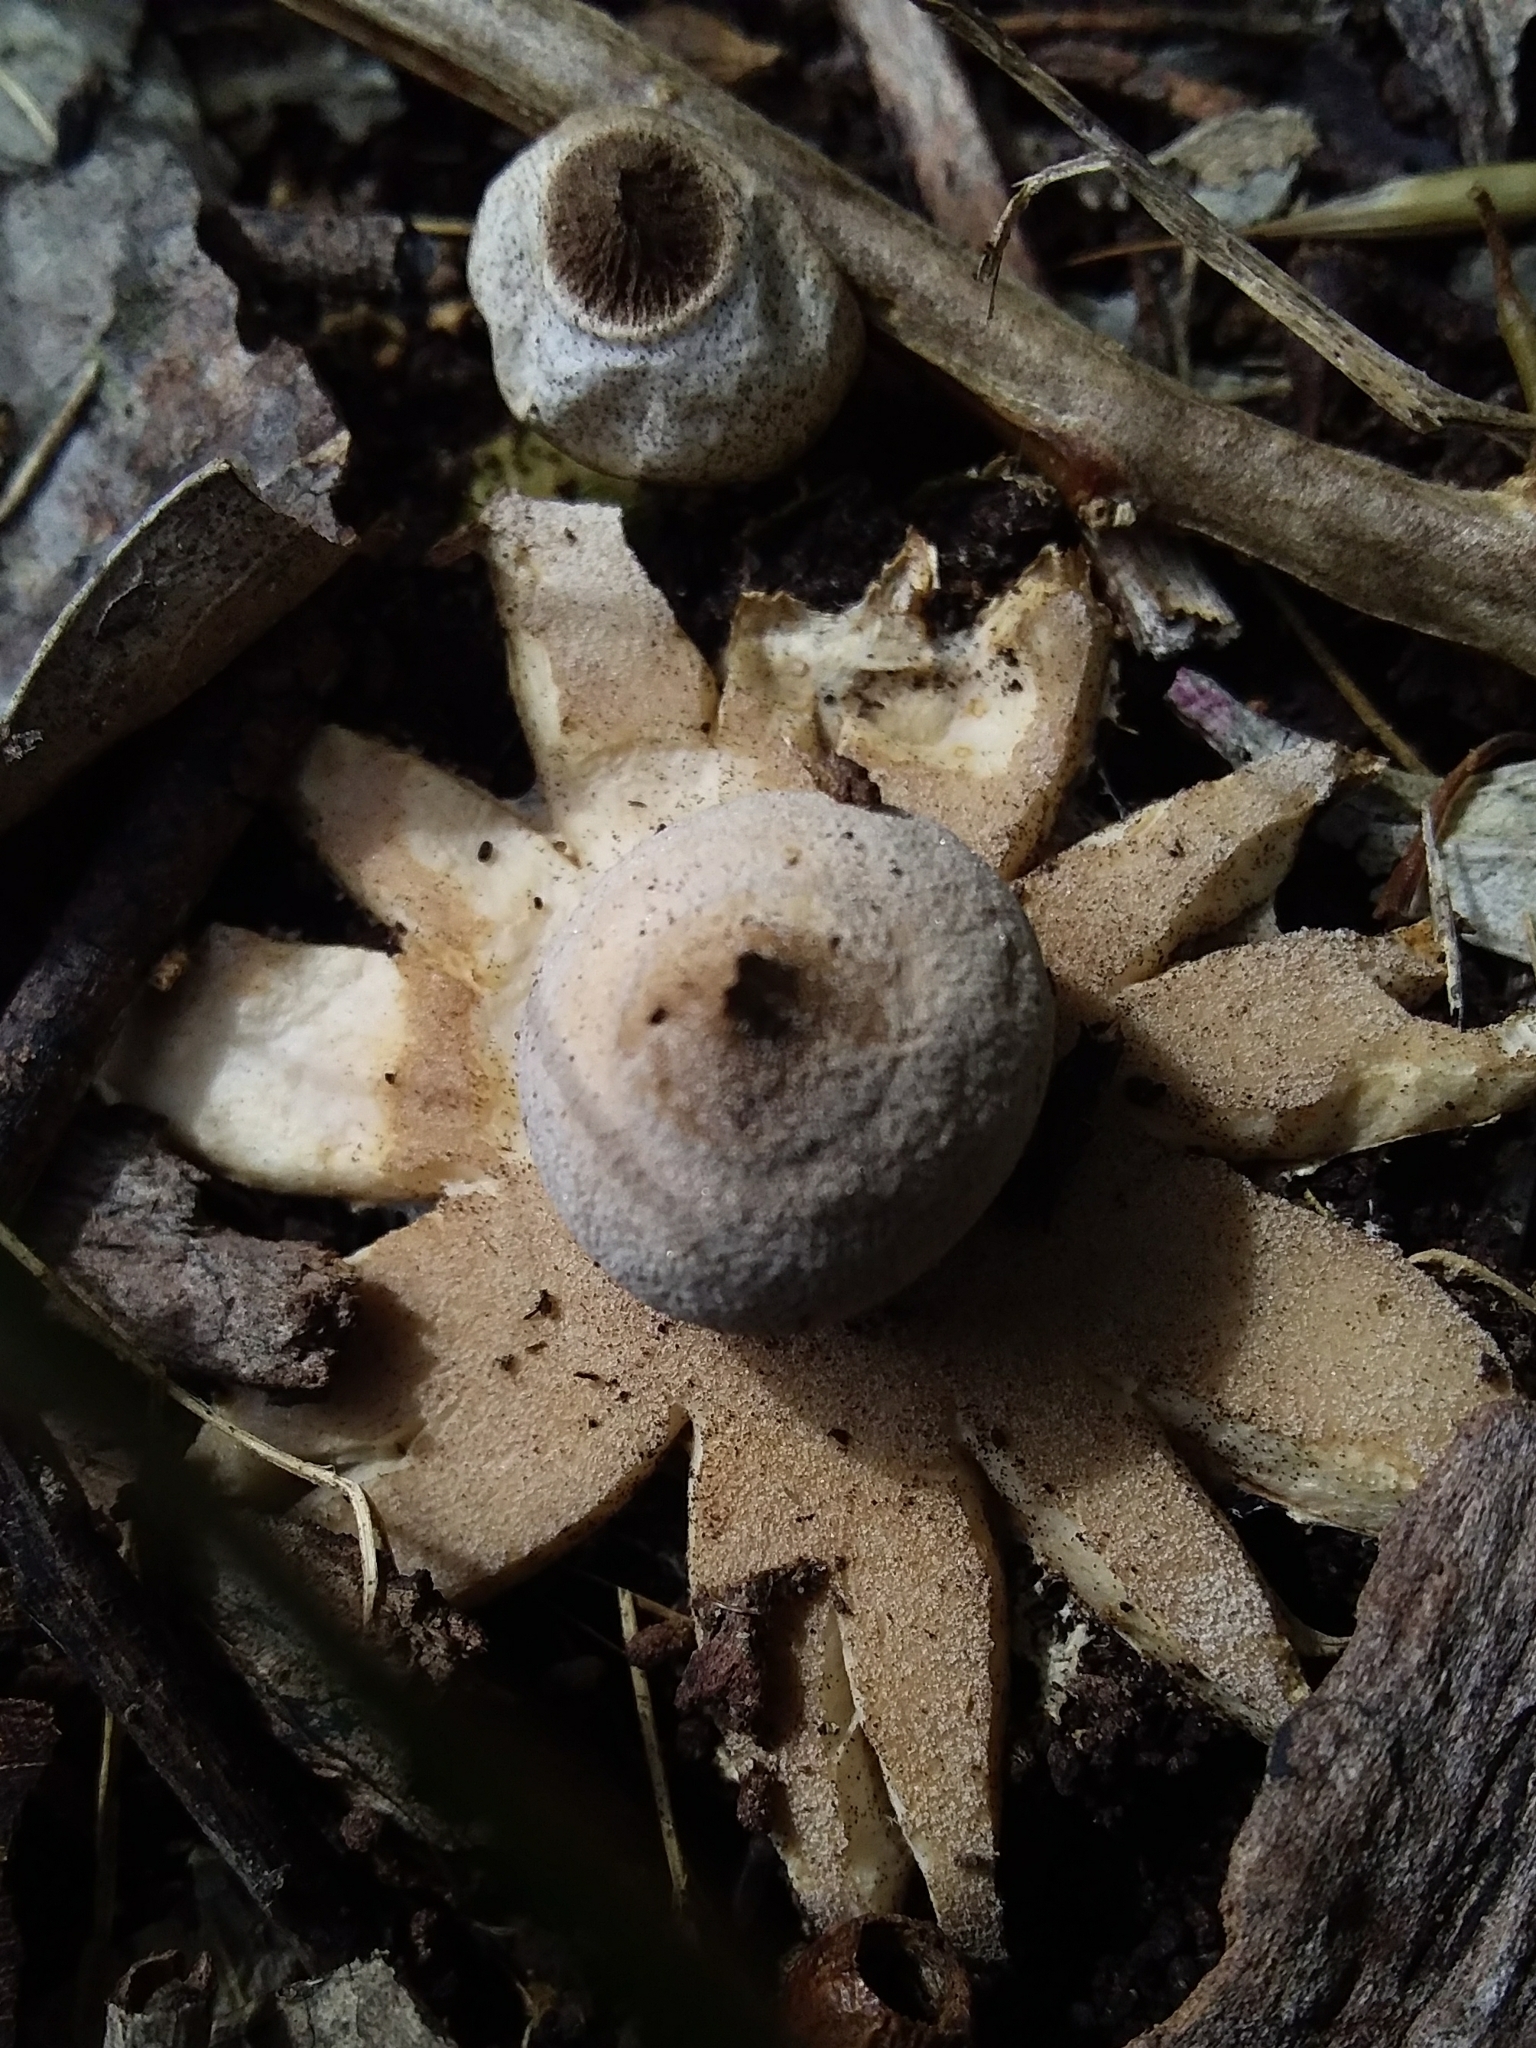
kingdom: Fungi
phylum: Basidiomycota
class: Agaricomycetes
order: Geastrales
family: Geastraceae
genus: Geastrum
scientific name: Geastrum saccatum
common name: Rounded earthstar
